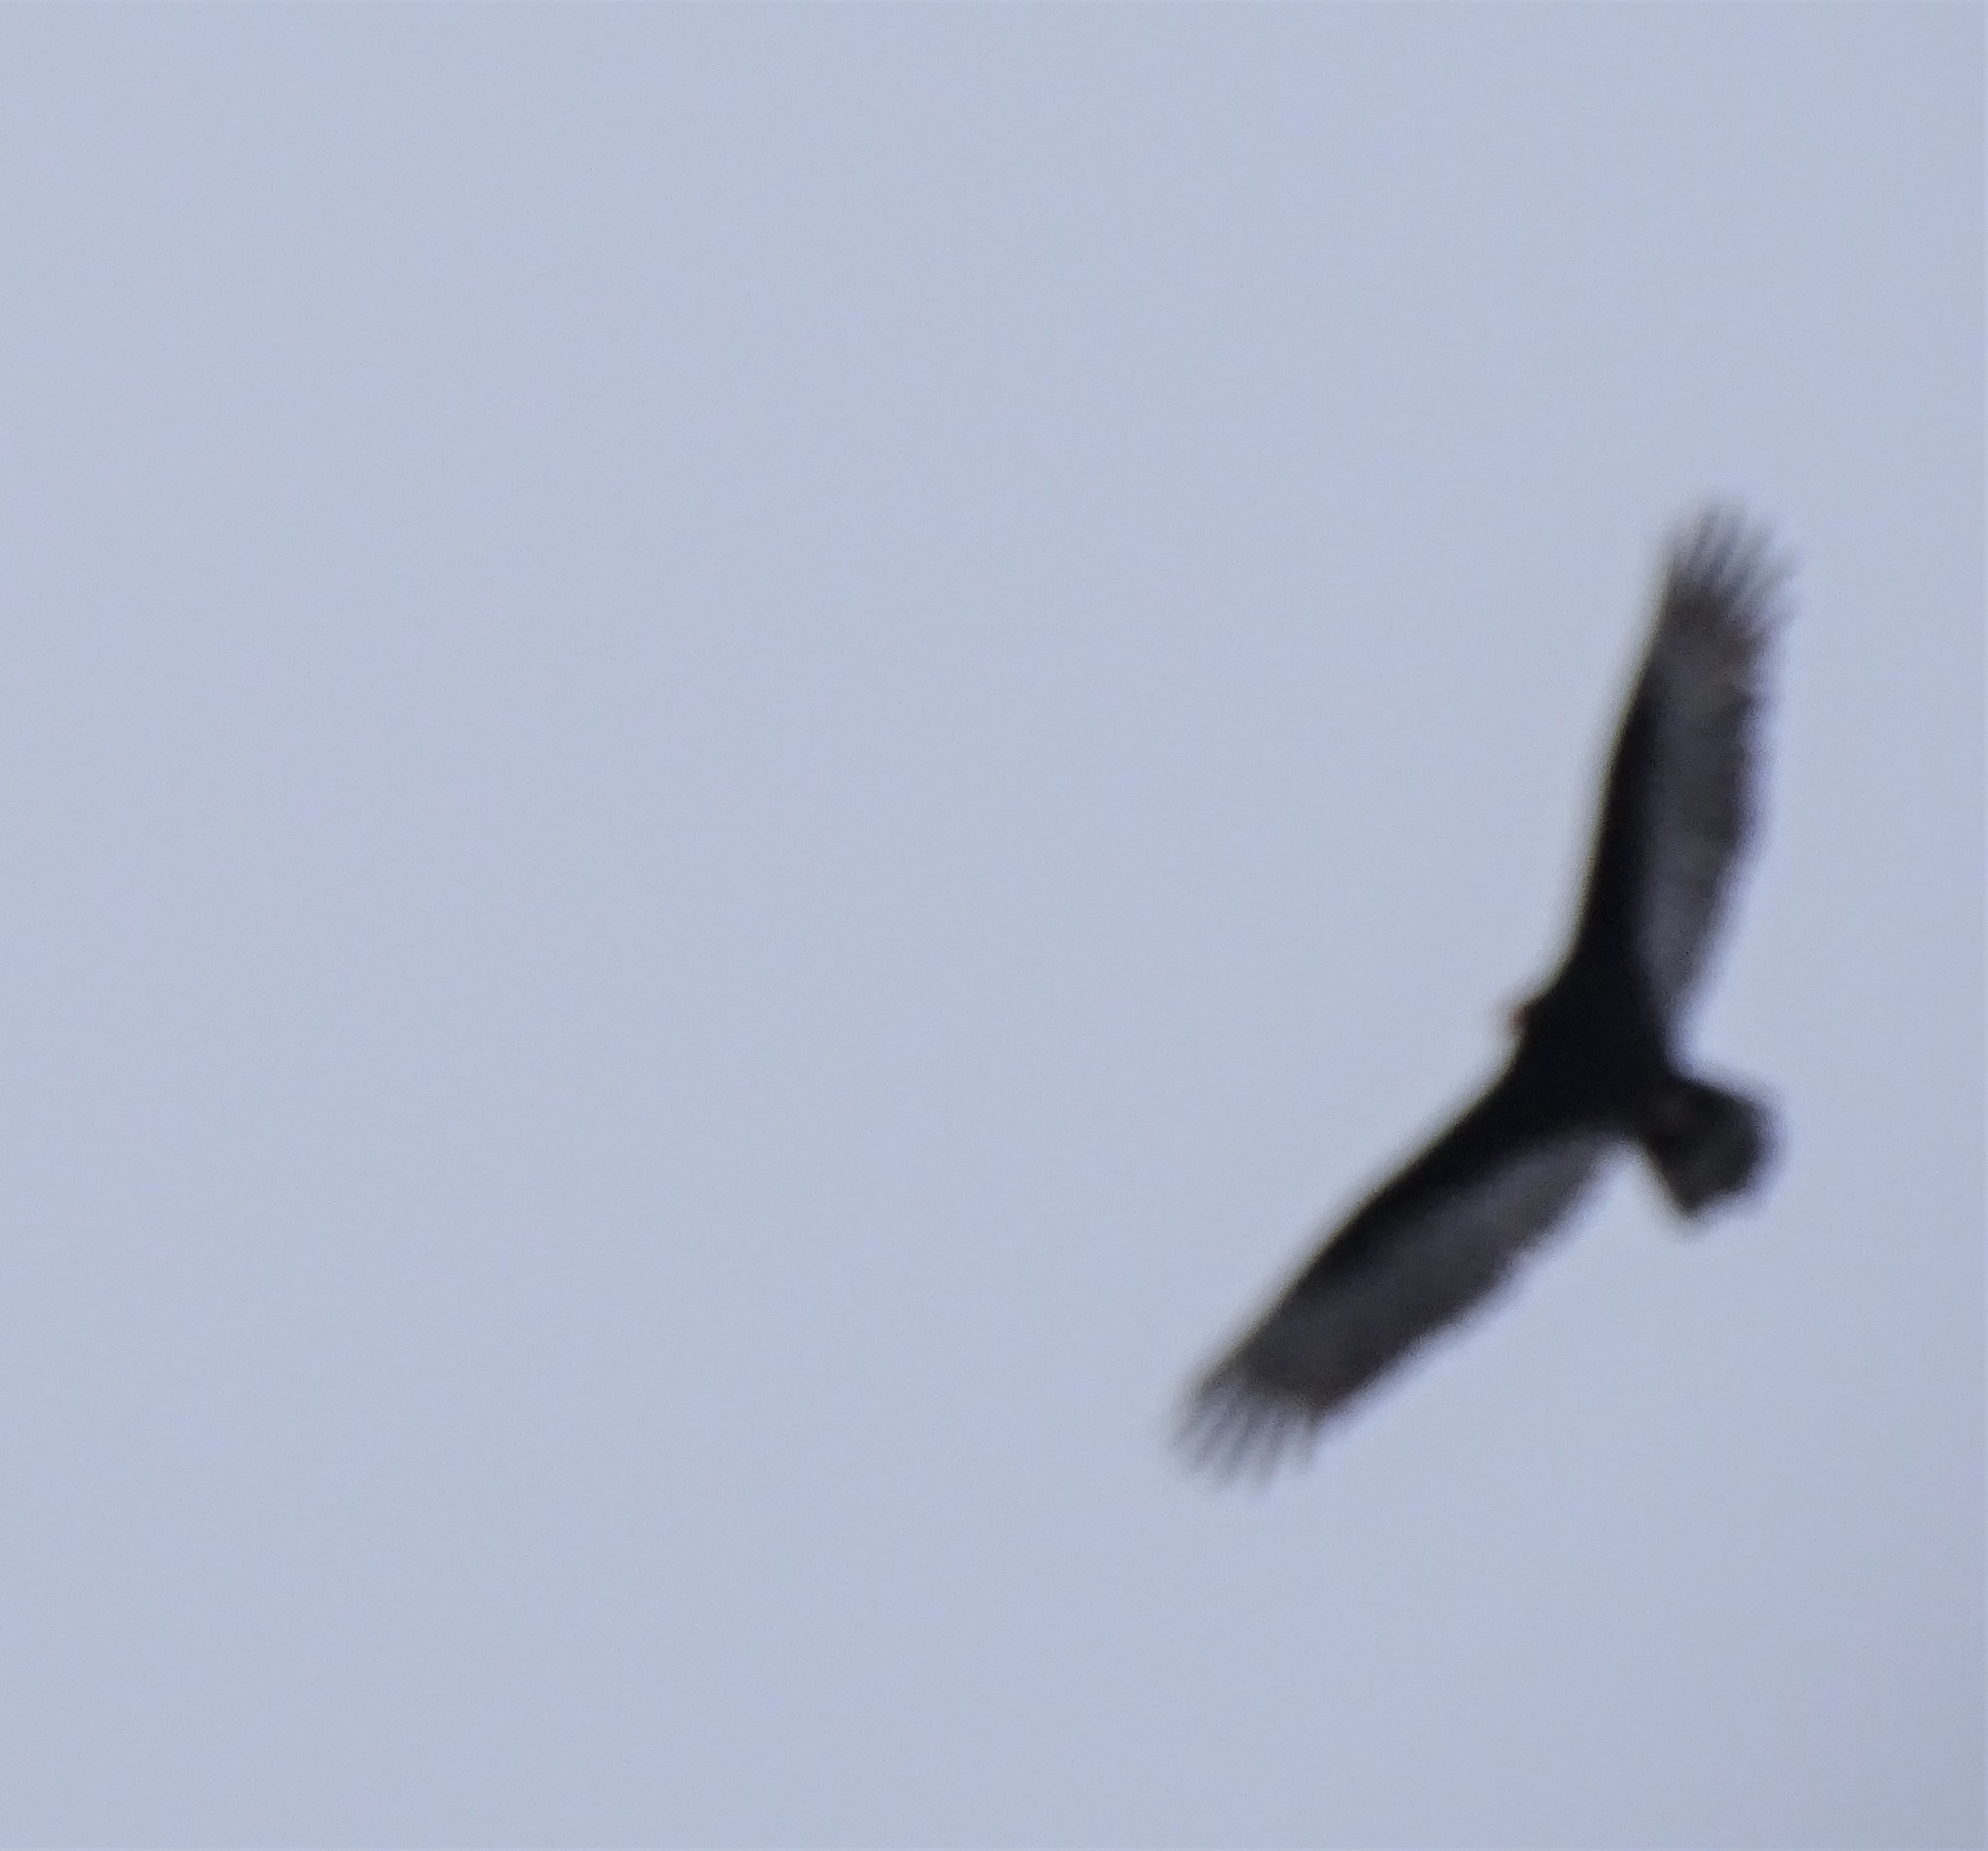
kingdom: Animalia
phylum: Chordata
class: Aves
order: Accipitriformes
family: Cathartidae
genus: Cathartes
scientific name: Cathartes aura
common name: Turkey vulture
